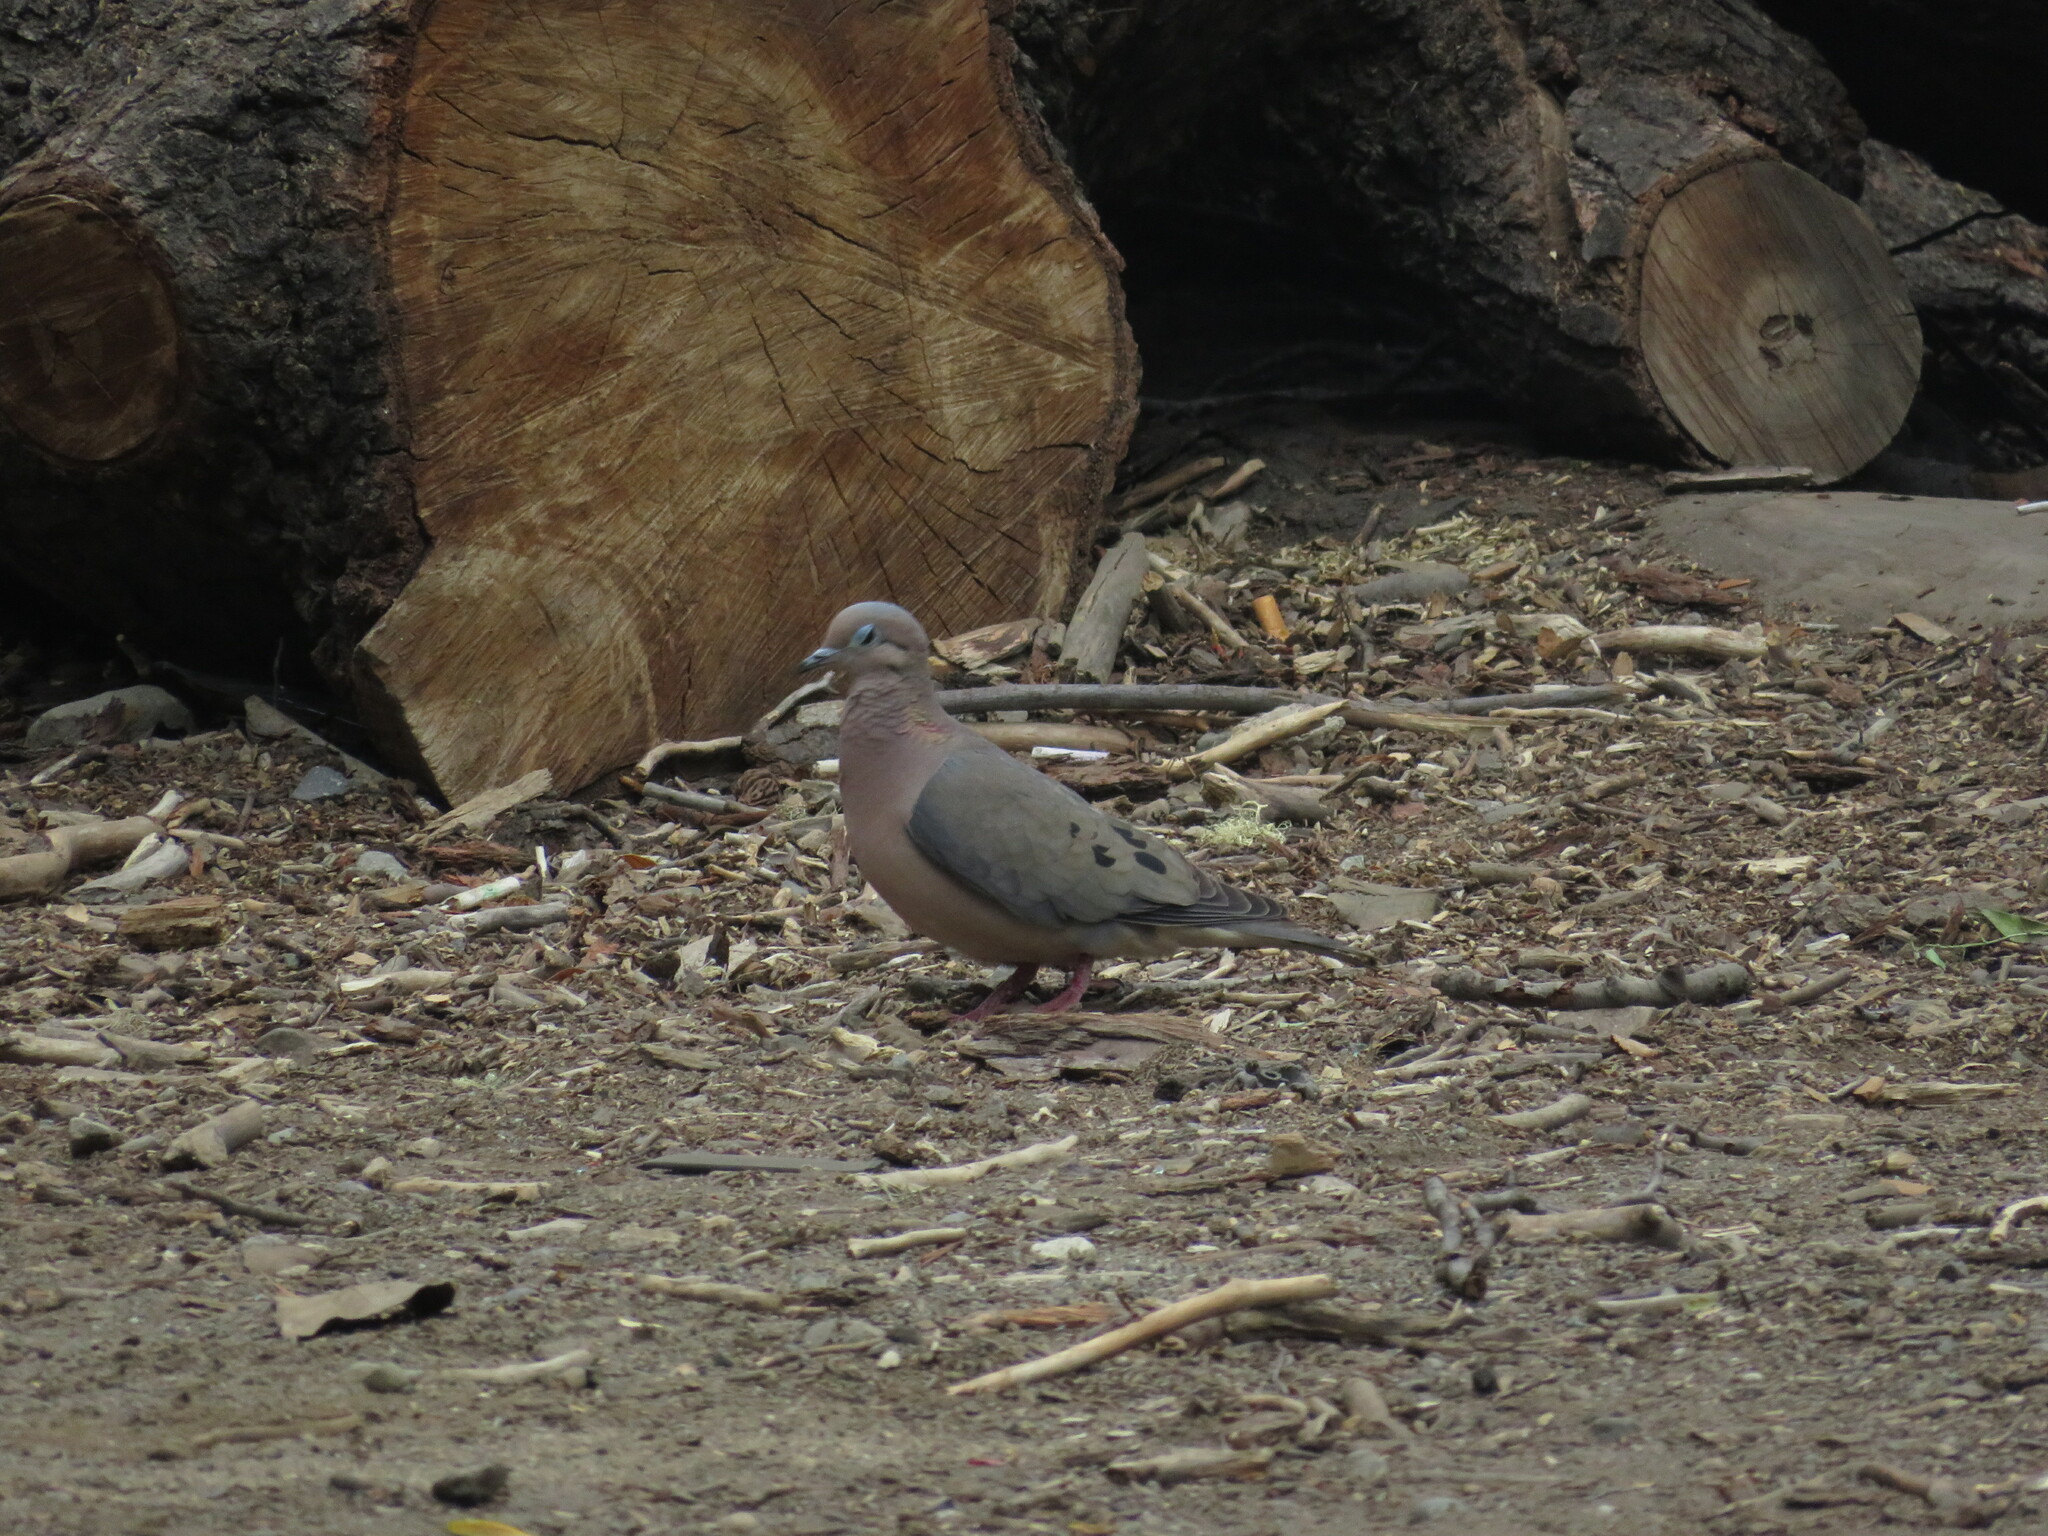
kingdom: Animalia
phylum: Chordata
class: Aves
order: Columbiformes
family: Columbidae
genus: Zenaida
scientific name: Zenaida auriculata
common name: Eared dove
